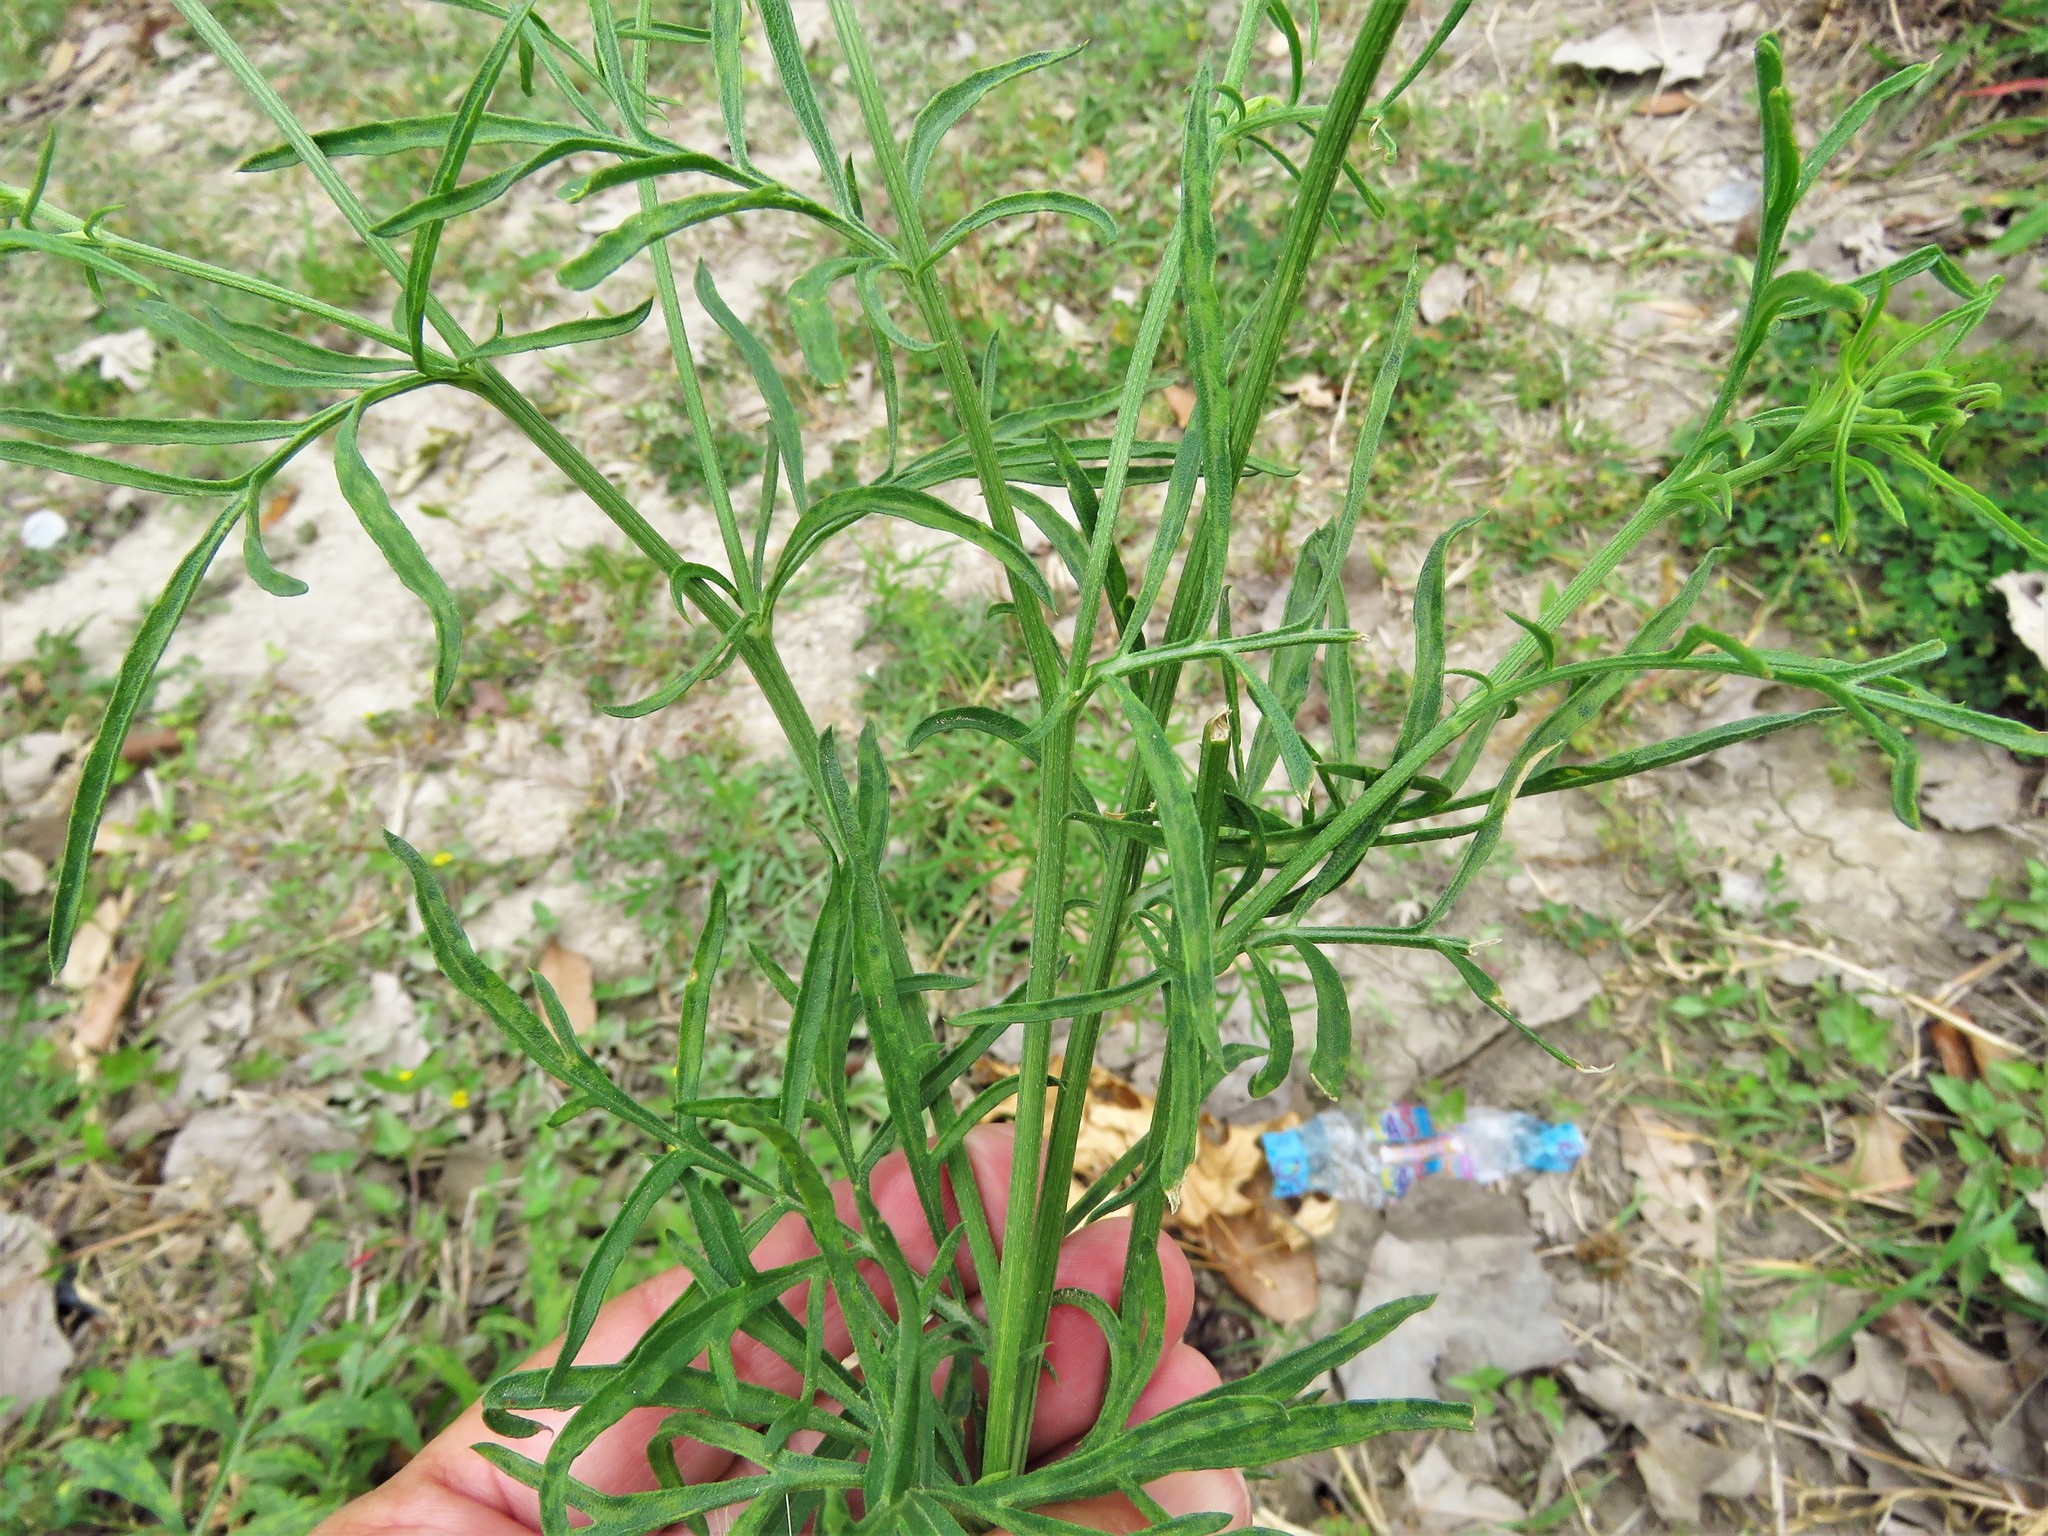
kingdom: Plantae
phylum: Tracheophyta
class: Magnoliopsida
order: Asterales
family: Asteraceae
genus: Ratibida
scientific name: Ratibida columnifera
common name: Prairie coneflower
